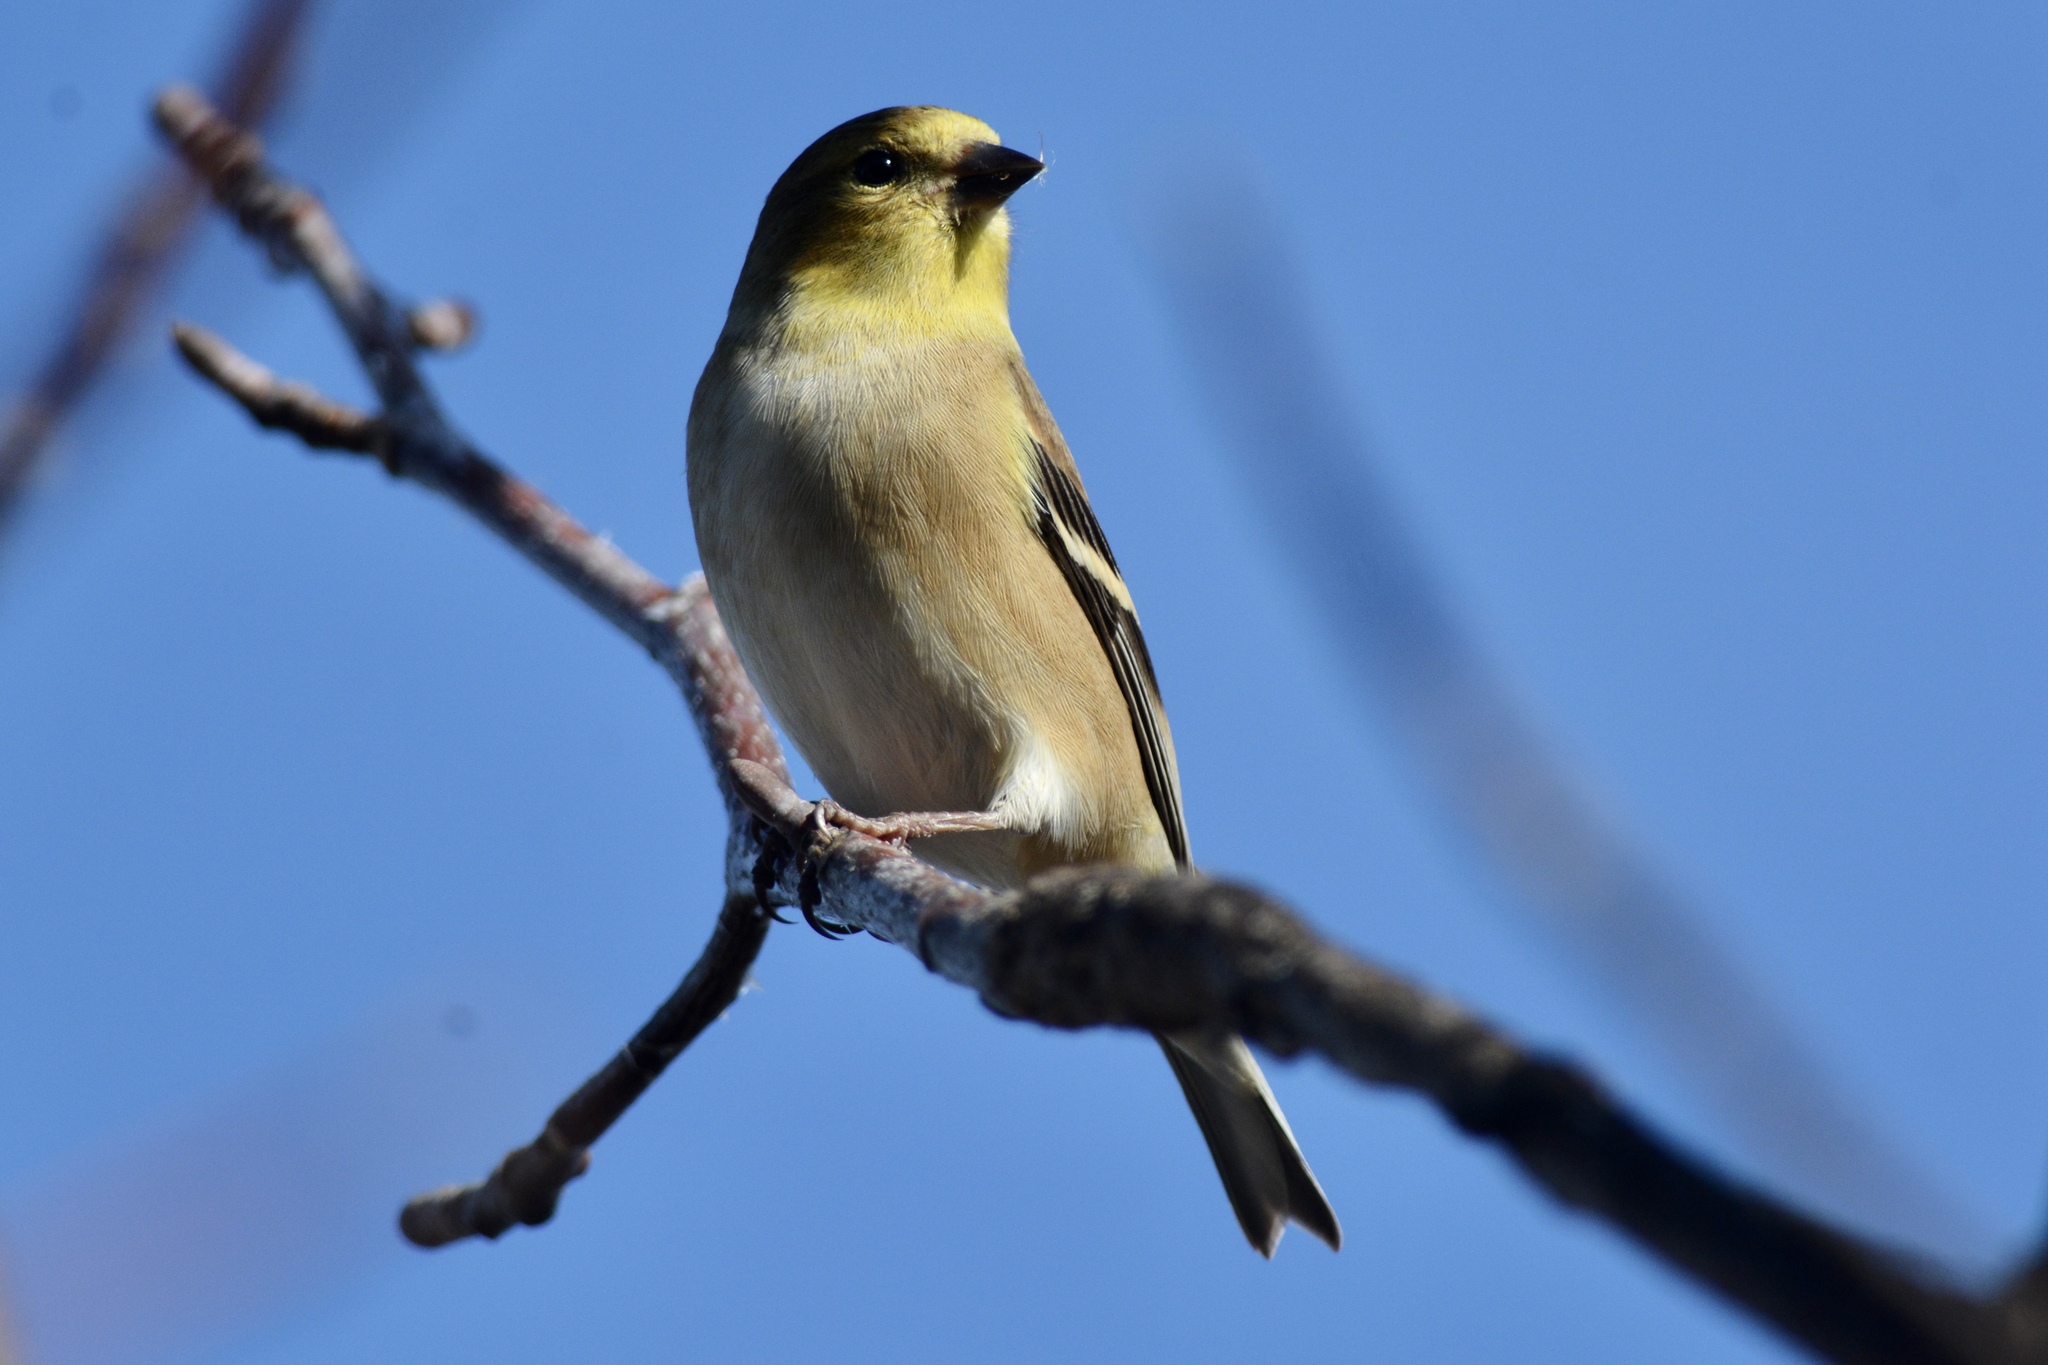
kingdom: Animalia
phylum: Chordata
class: Aves
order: Passeriformes
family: Fringillidae
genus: Spinus
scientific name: Spinus tristis
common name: American goldfinch
